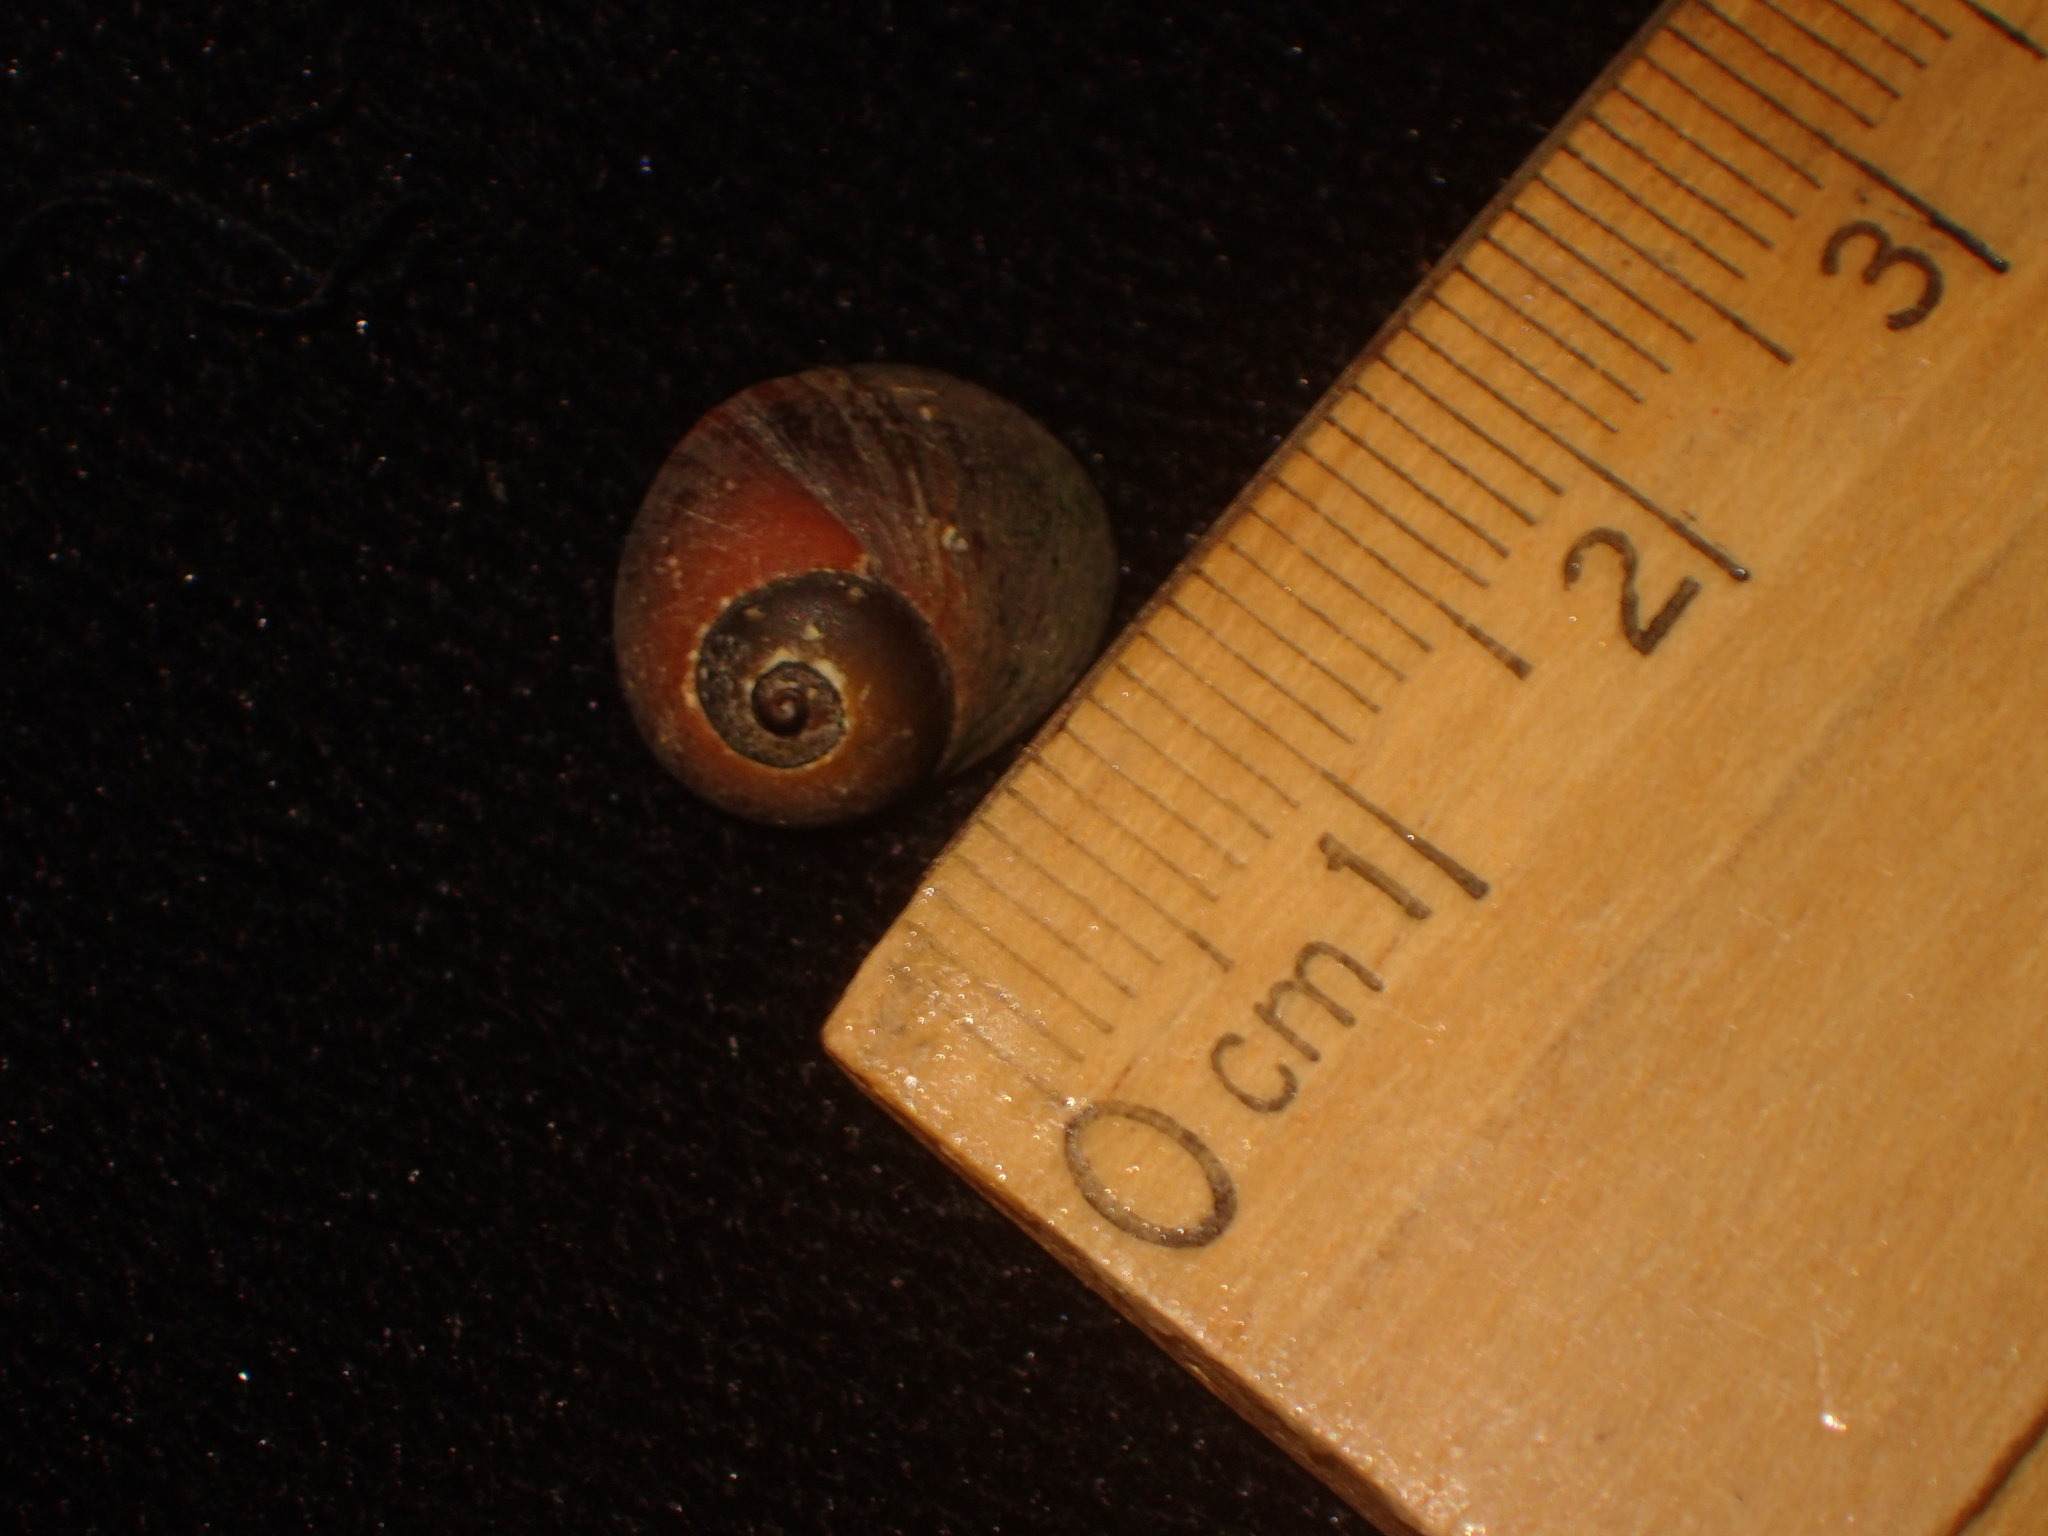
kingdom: Animalia
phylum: Mollusca
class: Gastropoda
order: Littorinimorpha
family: Littorinidae
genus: Littorina
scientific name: Littorina obtusata
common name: Flat periwinkle
